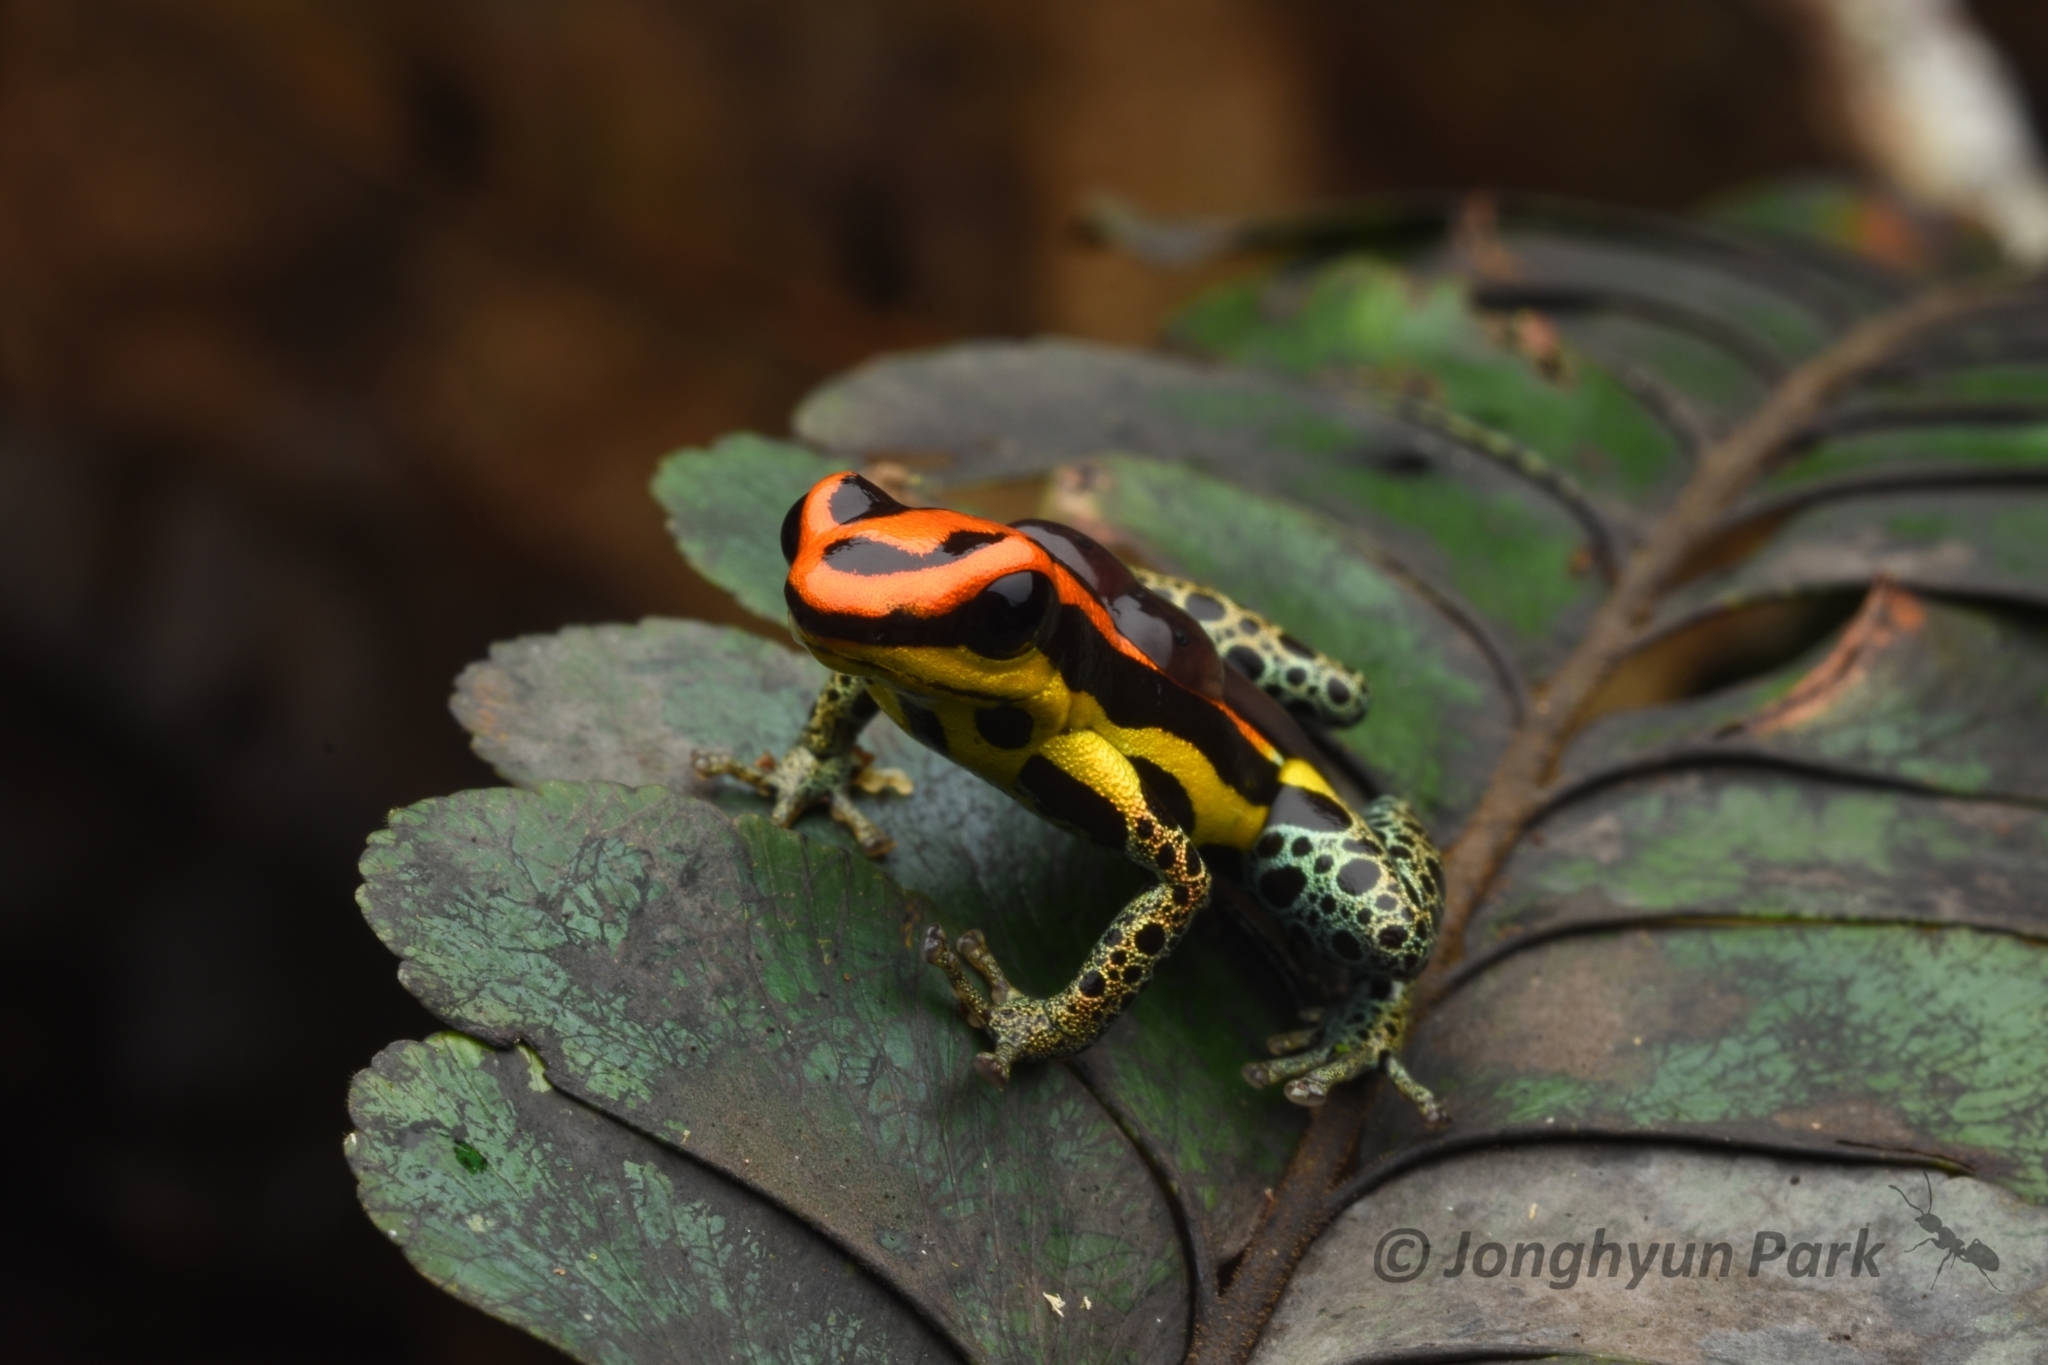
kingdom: Animalia
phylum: Chordata
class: Amphibia
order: Anura
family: Dendrobatidae
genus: Ranitomeya
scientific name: Ranitomeya uakarii
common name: Red uakari poison frog
